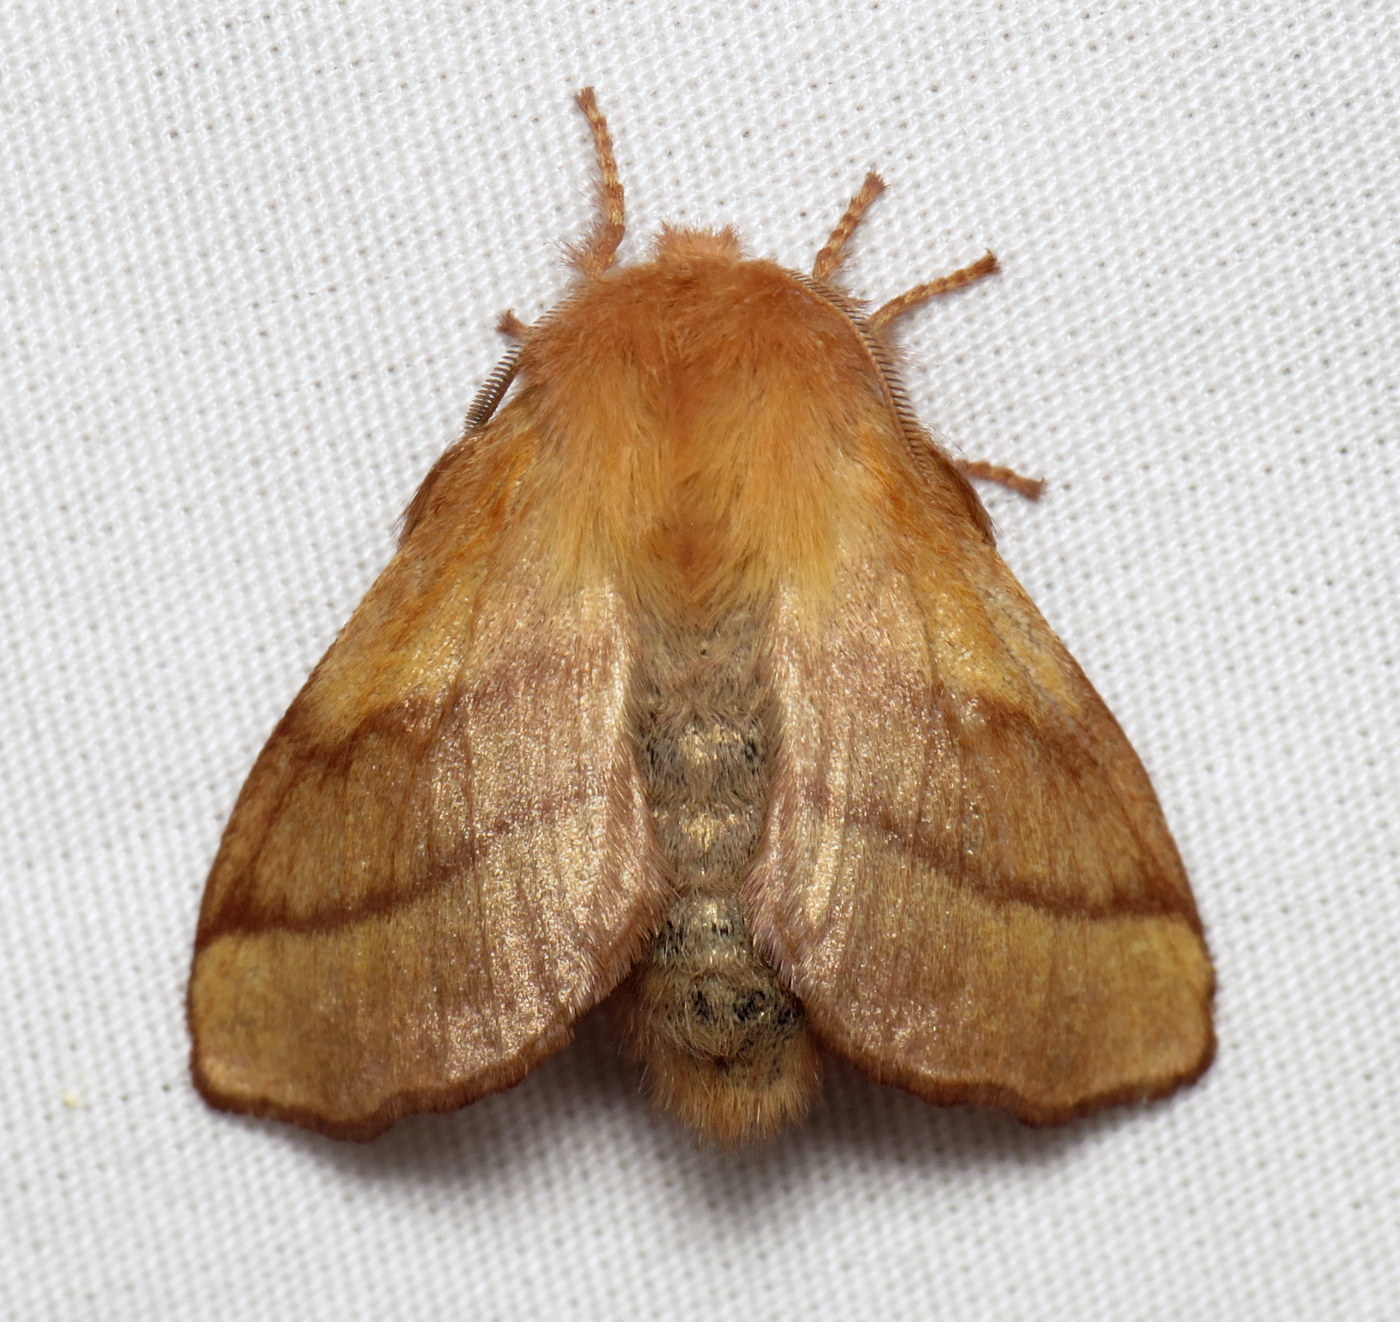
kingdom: Animalia
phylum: Arthropoda
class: Insecta
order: Lepidoptera
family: Lasiocampidae
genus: Malacosoma
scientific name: Malacosoma disstria
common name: Forest tent caterpillar
